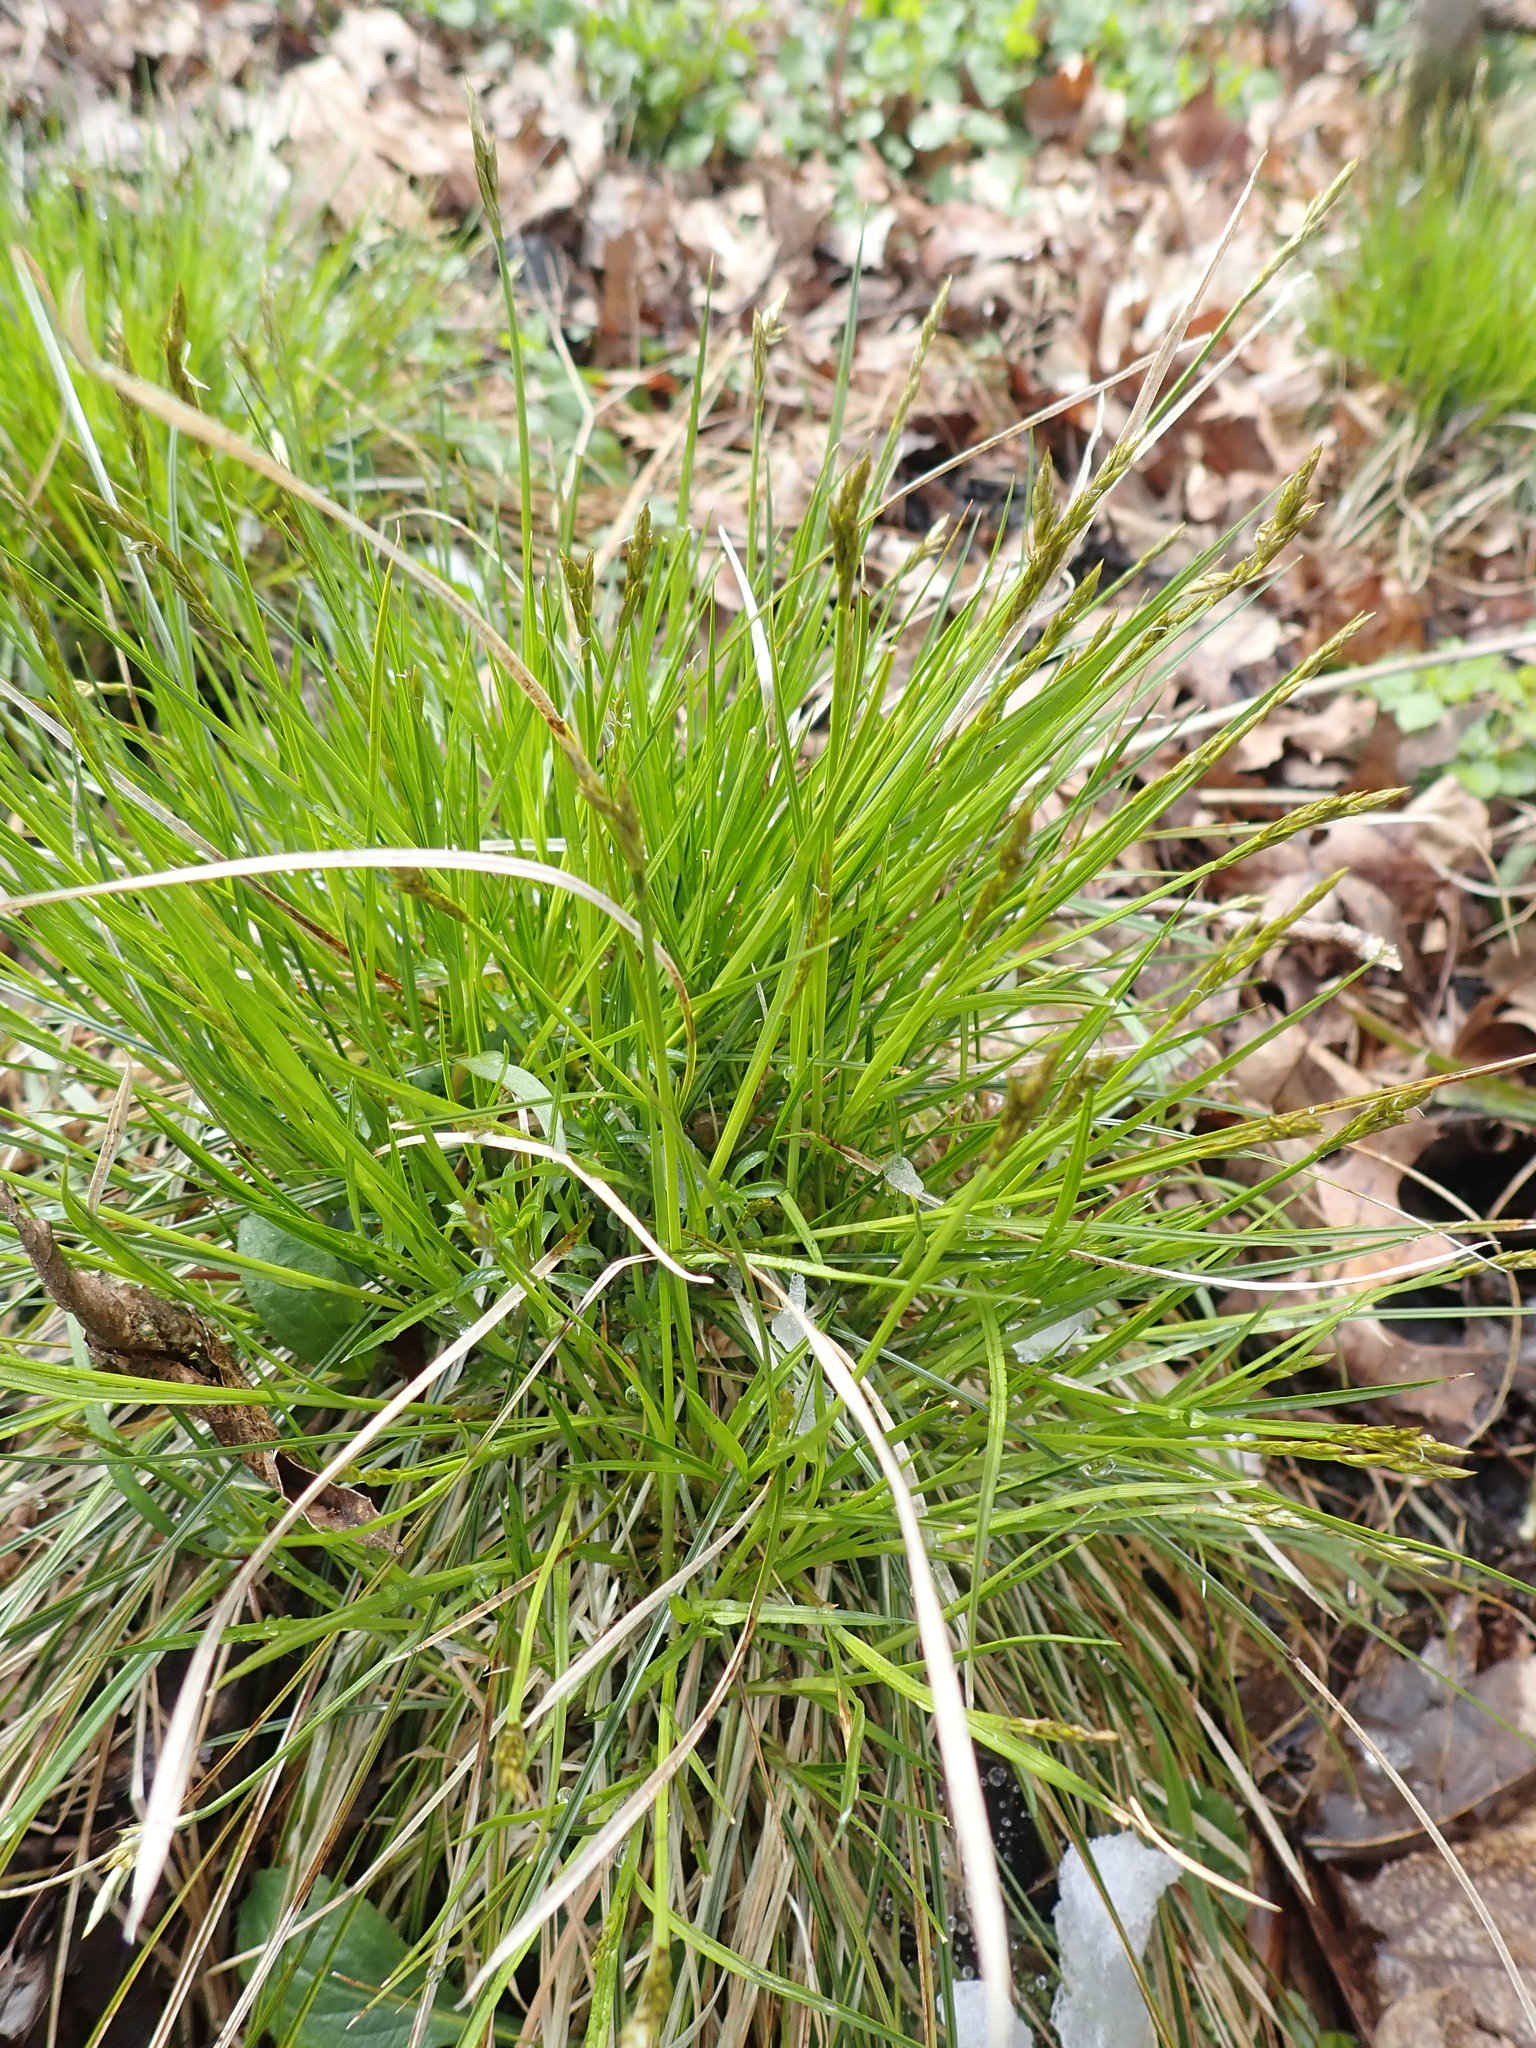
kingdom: Plantae
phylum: Tracheophyta
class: Liliopsida
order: Poales
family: Cyperaceae
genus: Carex
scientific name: Carex bromoides
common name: Brome hummock sedge
